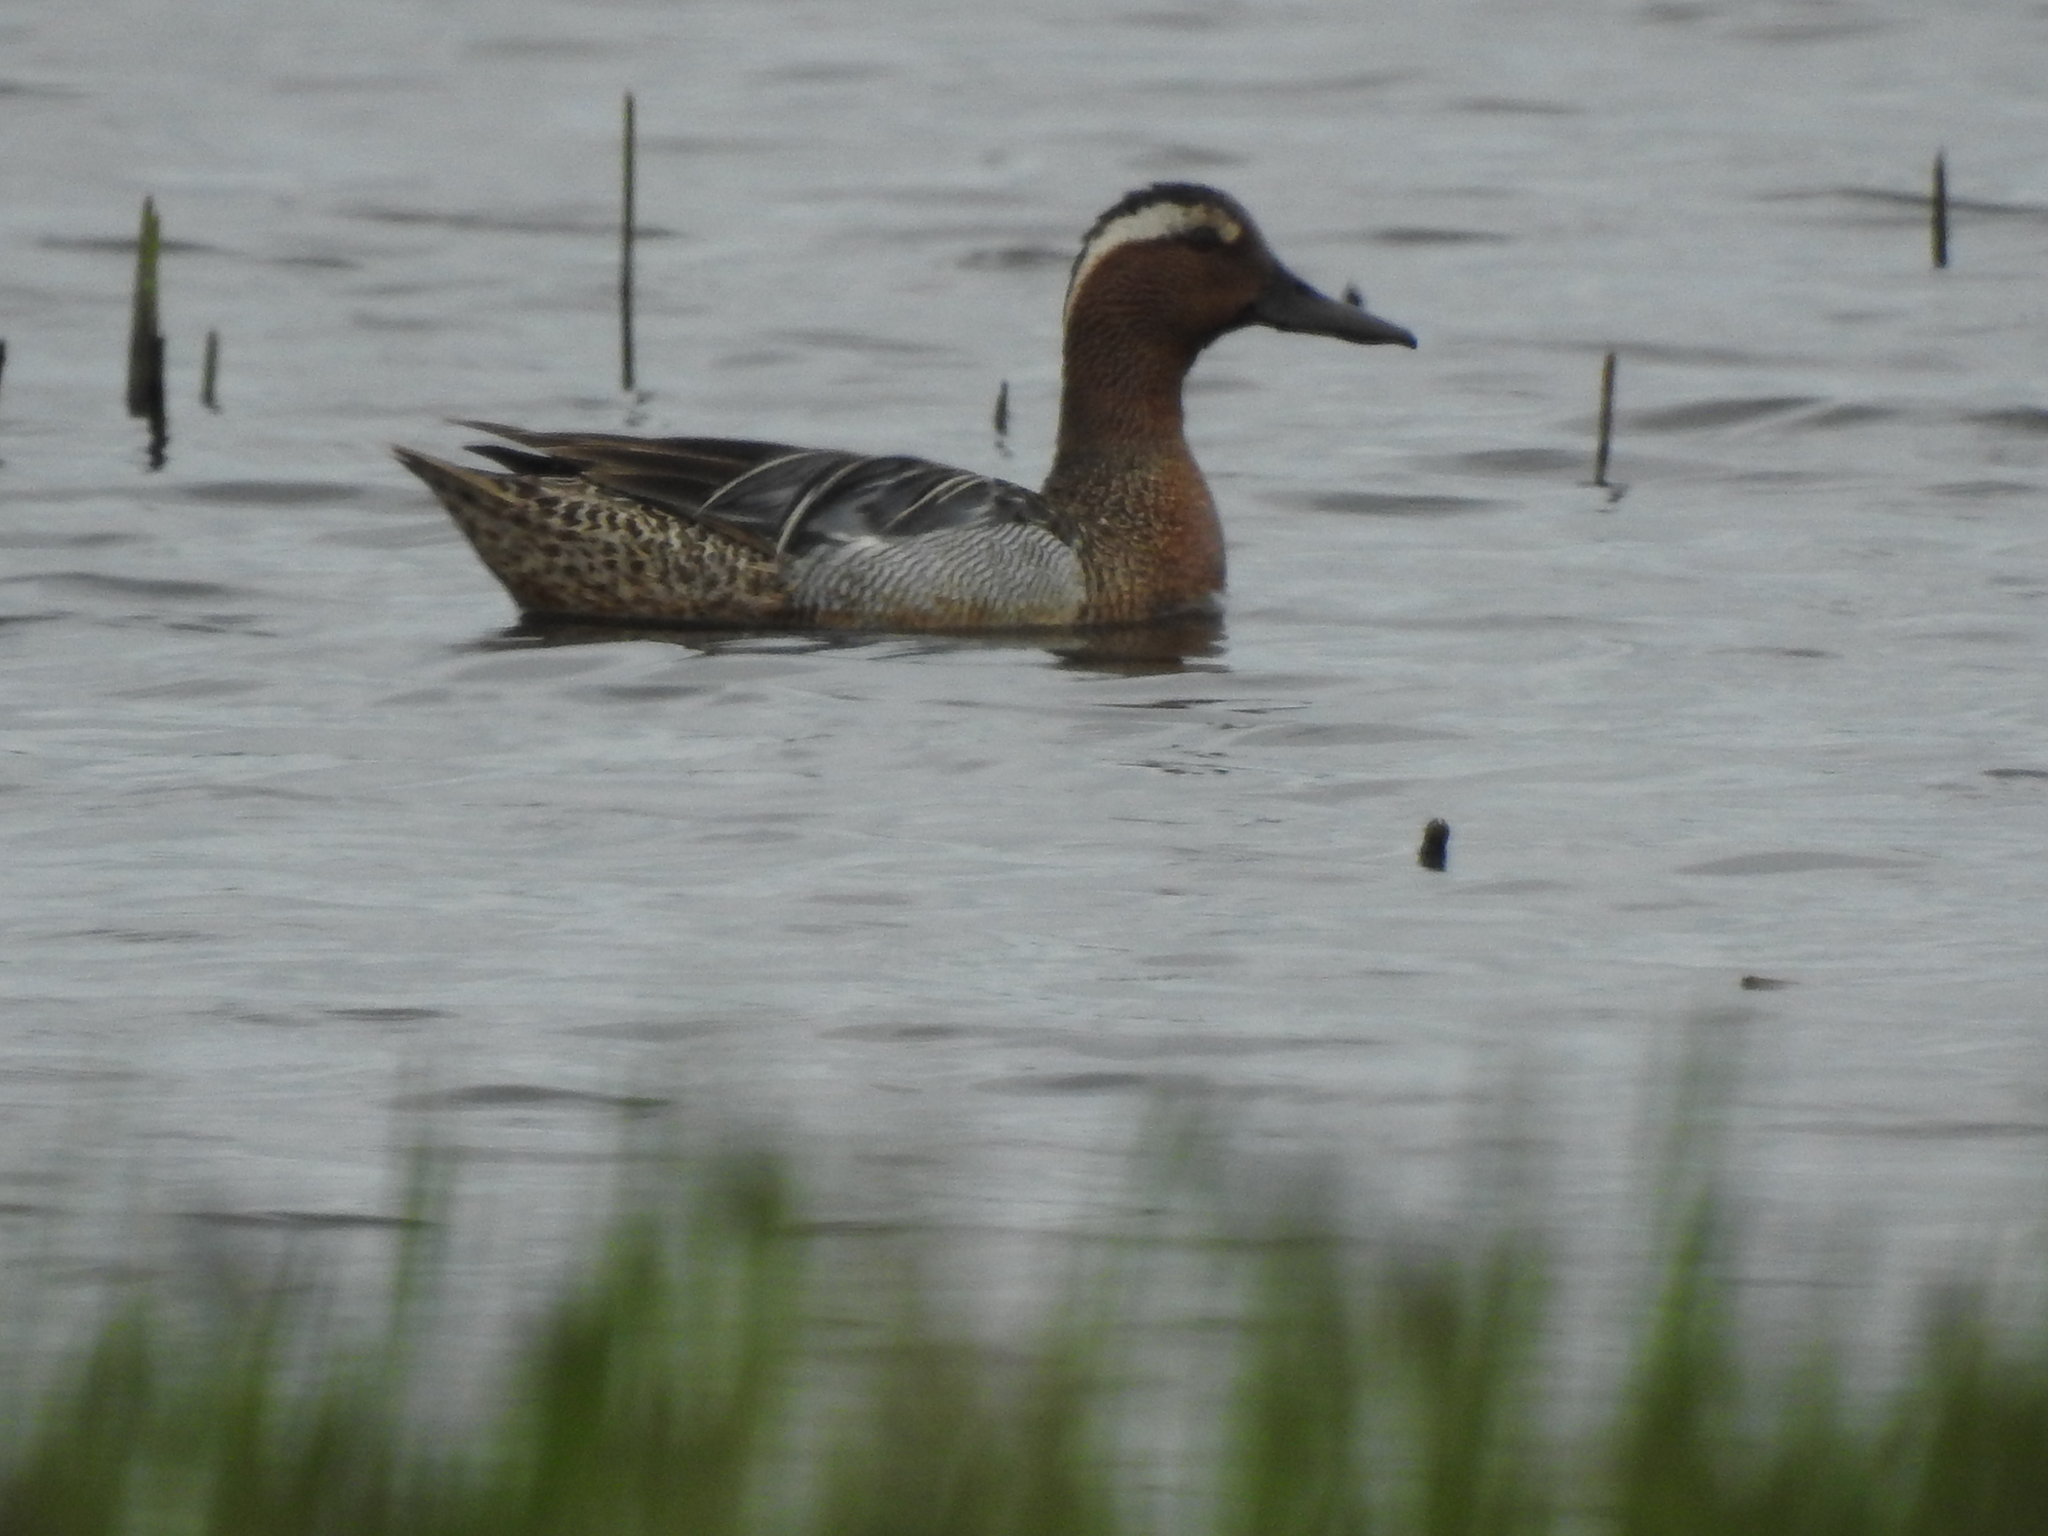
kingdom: Animalia
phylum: Chordata
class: Aves
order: Anseriformes
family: Anatidae
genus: Spatula
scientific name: Spatula querquedula
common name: Garganey
